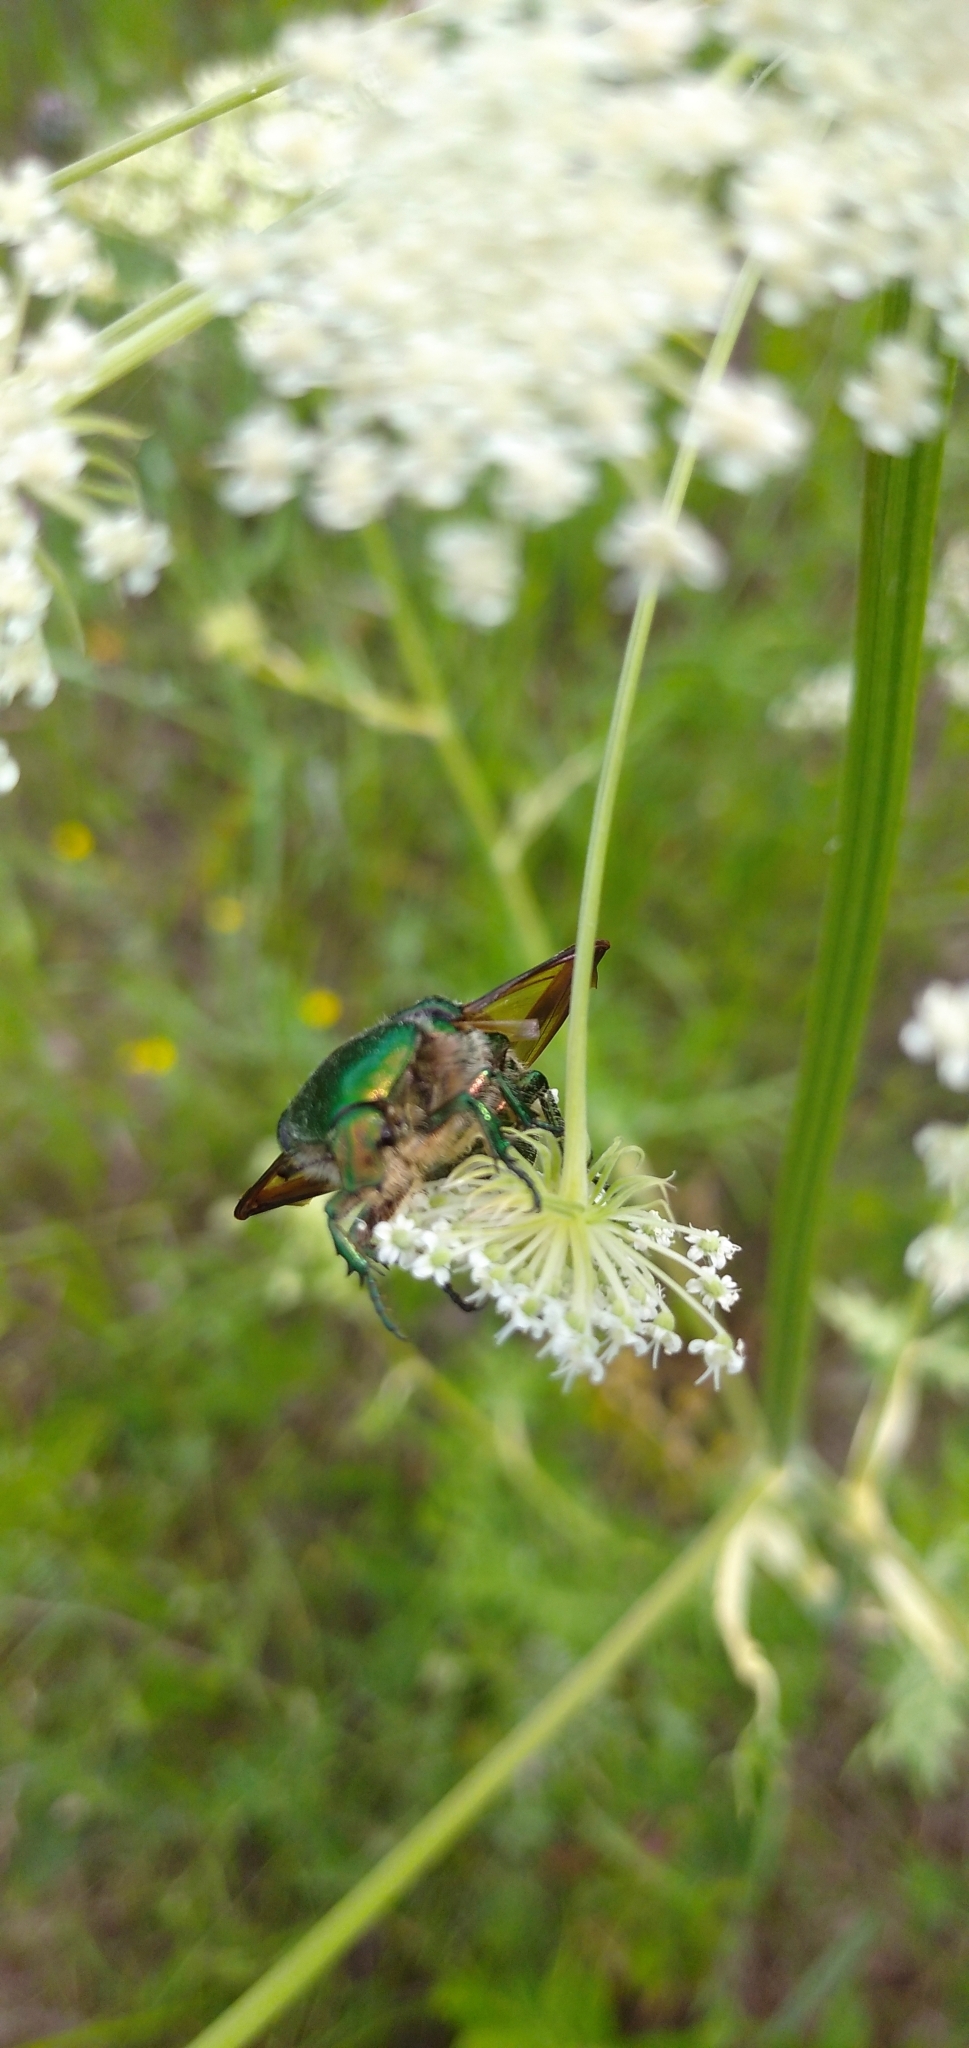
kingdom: Animalia
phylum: Arthropoda
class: Insecta
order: Coleoptera
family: Scarabaeidae
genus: Cetonia
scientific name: Cetonia aurata
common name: Rose chafer
